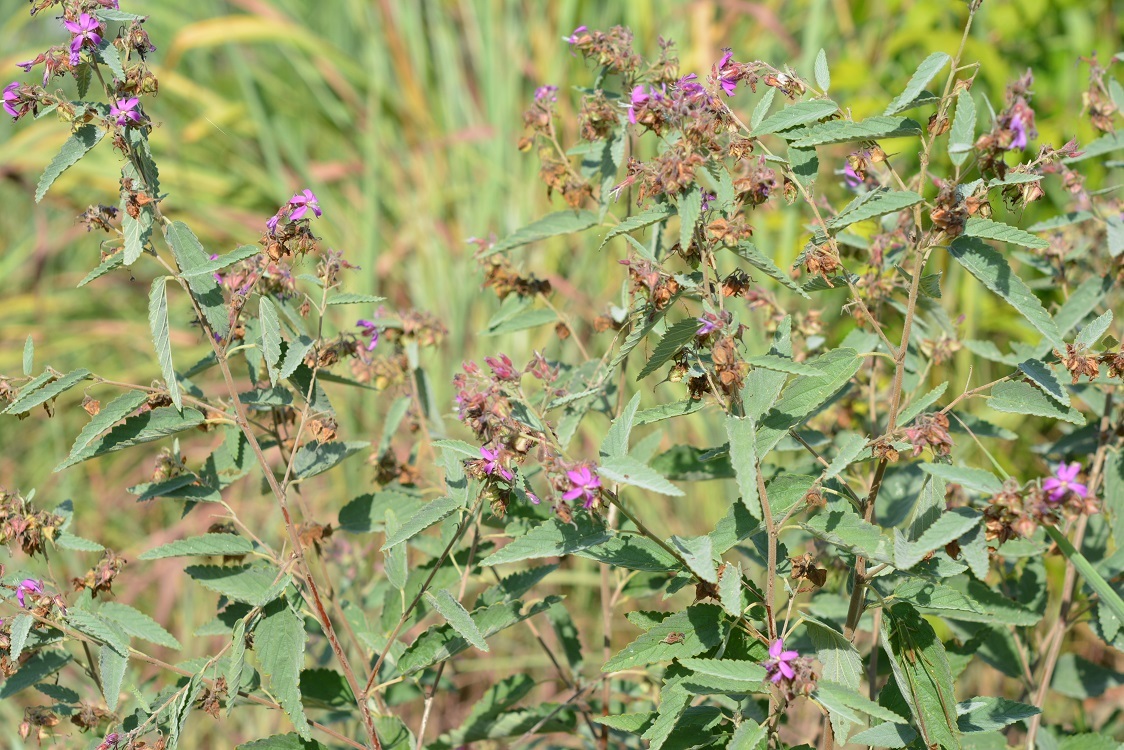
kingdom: Plantae
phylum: Tracheophyta
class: Magnoliopsida
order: Malvales
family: Malvaceae
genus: Melochia
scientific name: Melochia tomentosa
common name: Black torch
